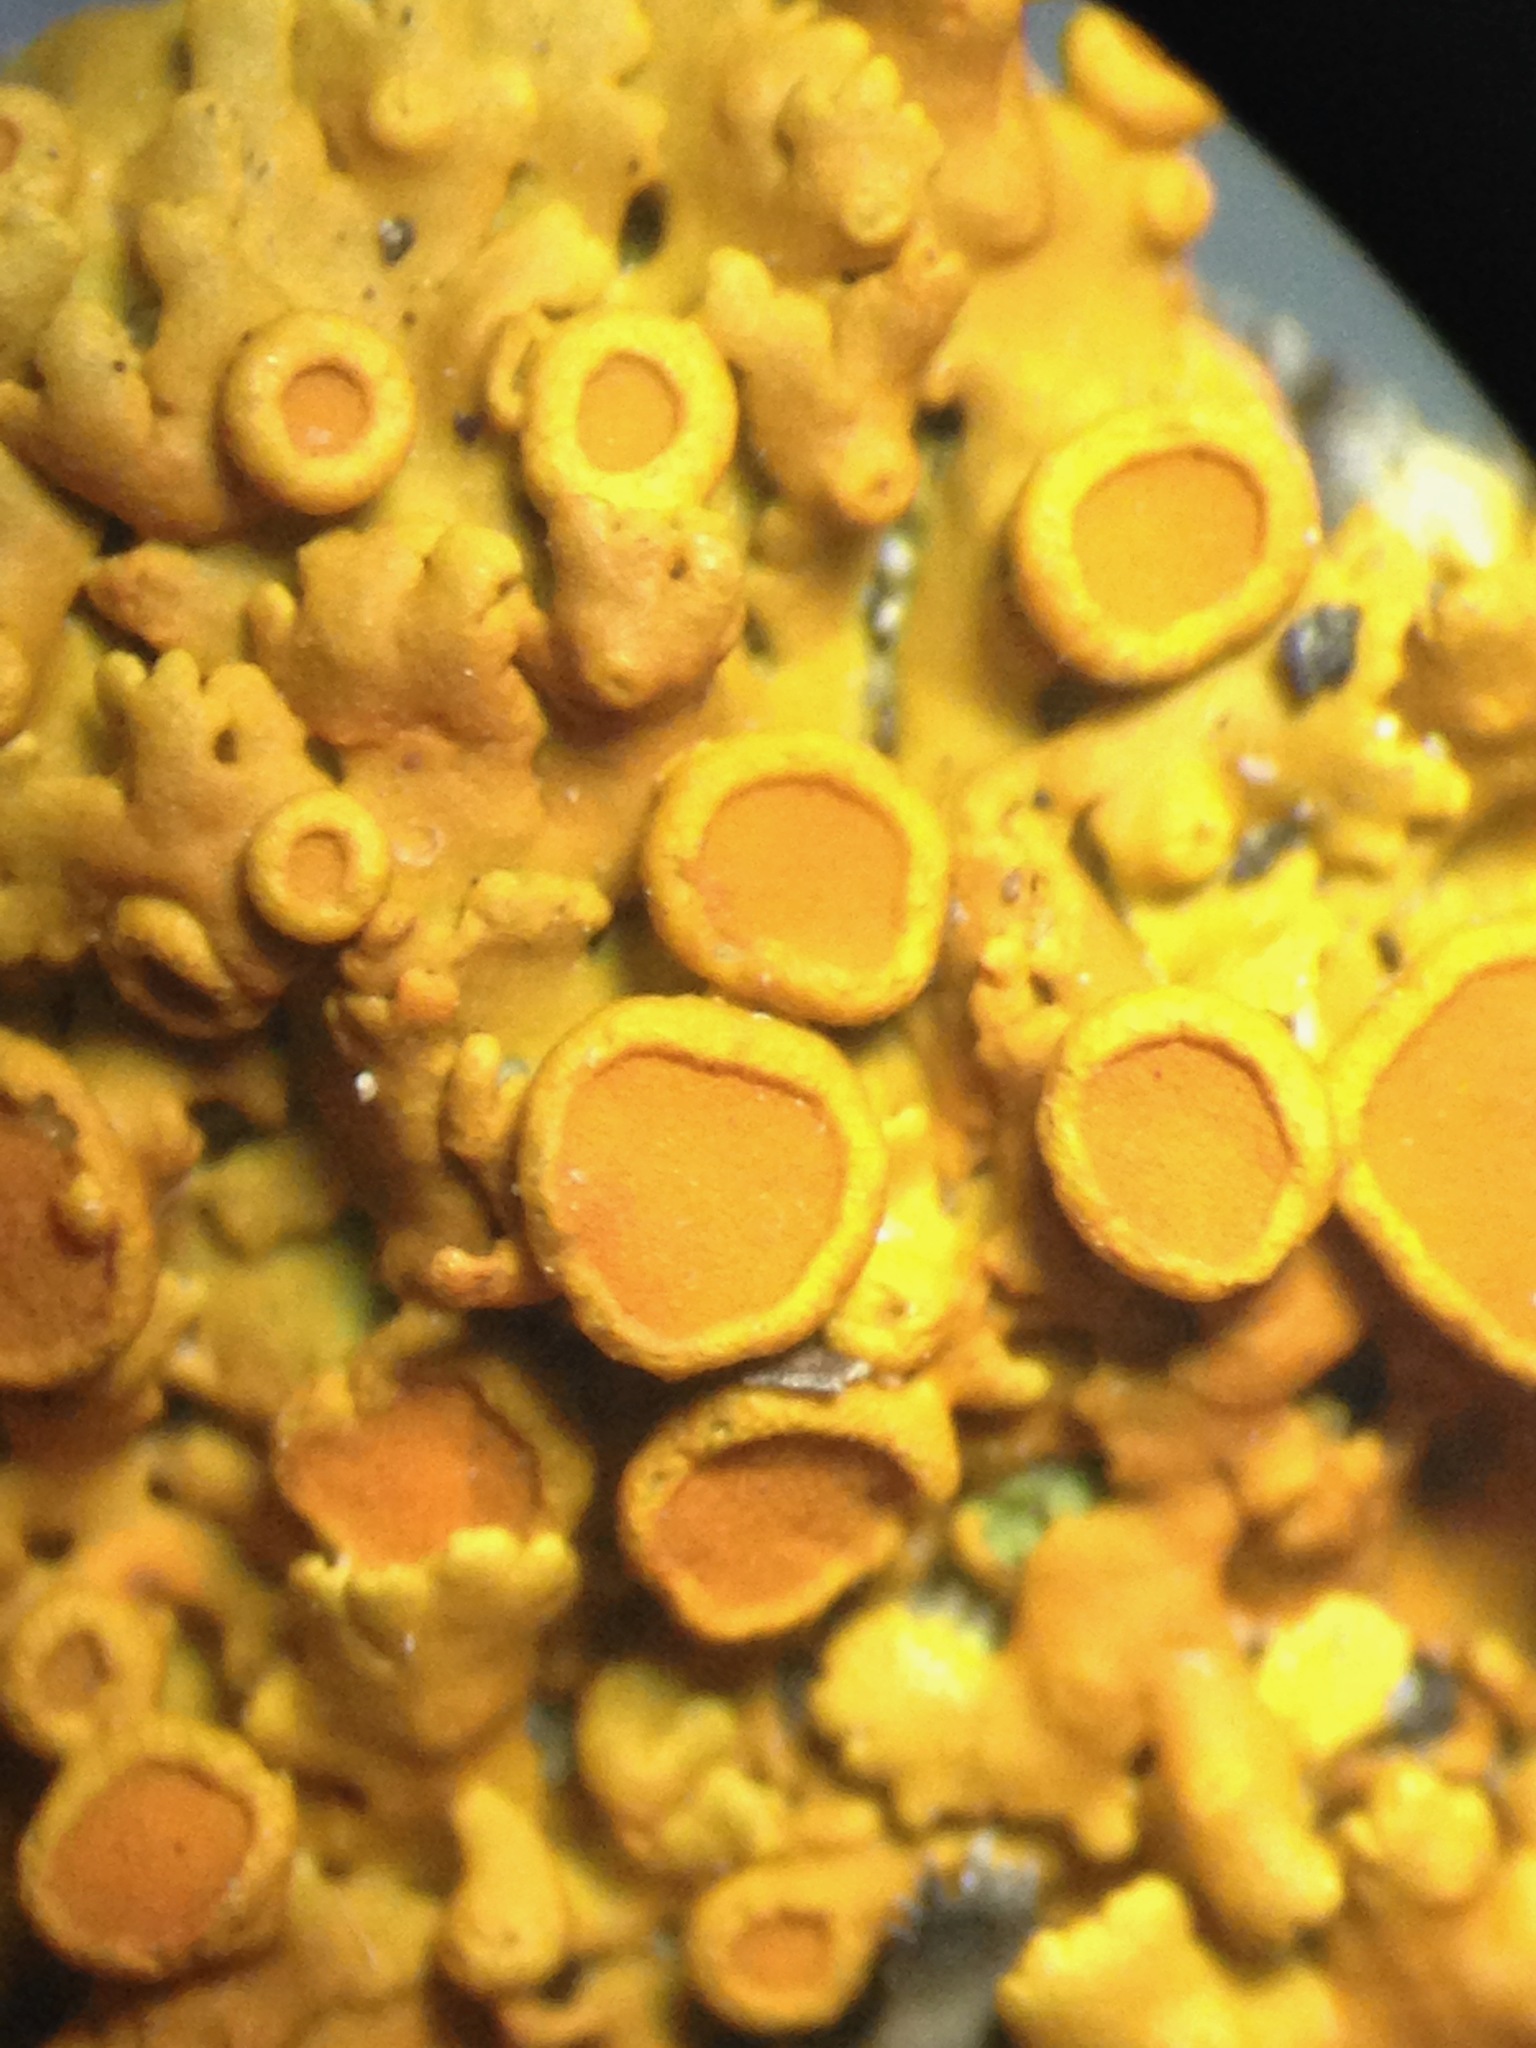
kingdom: Fungi
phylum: Ascomycota
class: Lecanoromycetes
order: Teloschistales
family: Teloschistaceae
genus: Gallowayella
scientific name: Gallowayella hasseana
